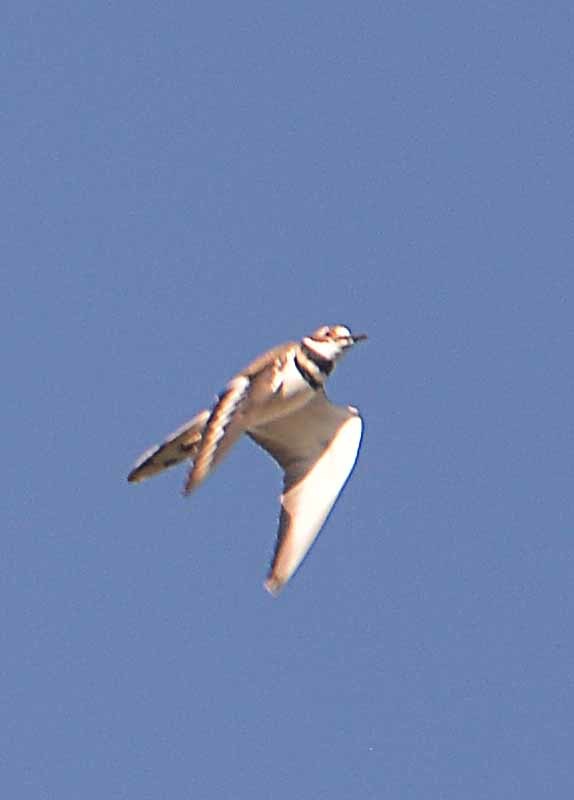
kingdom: Animalia
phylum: Chordata
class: Aves
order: Charadriiformes
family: Charadriidae
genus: Charadrius
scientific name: Charadrius vociferus
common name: Killdeer
